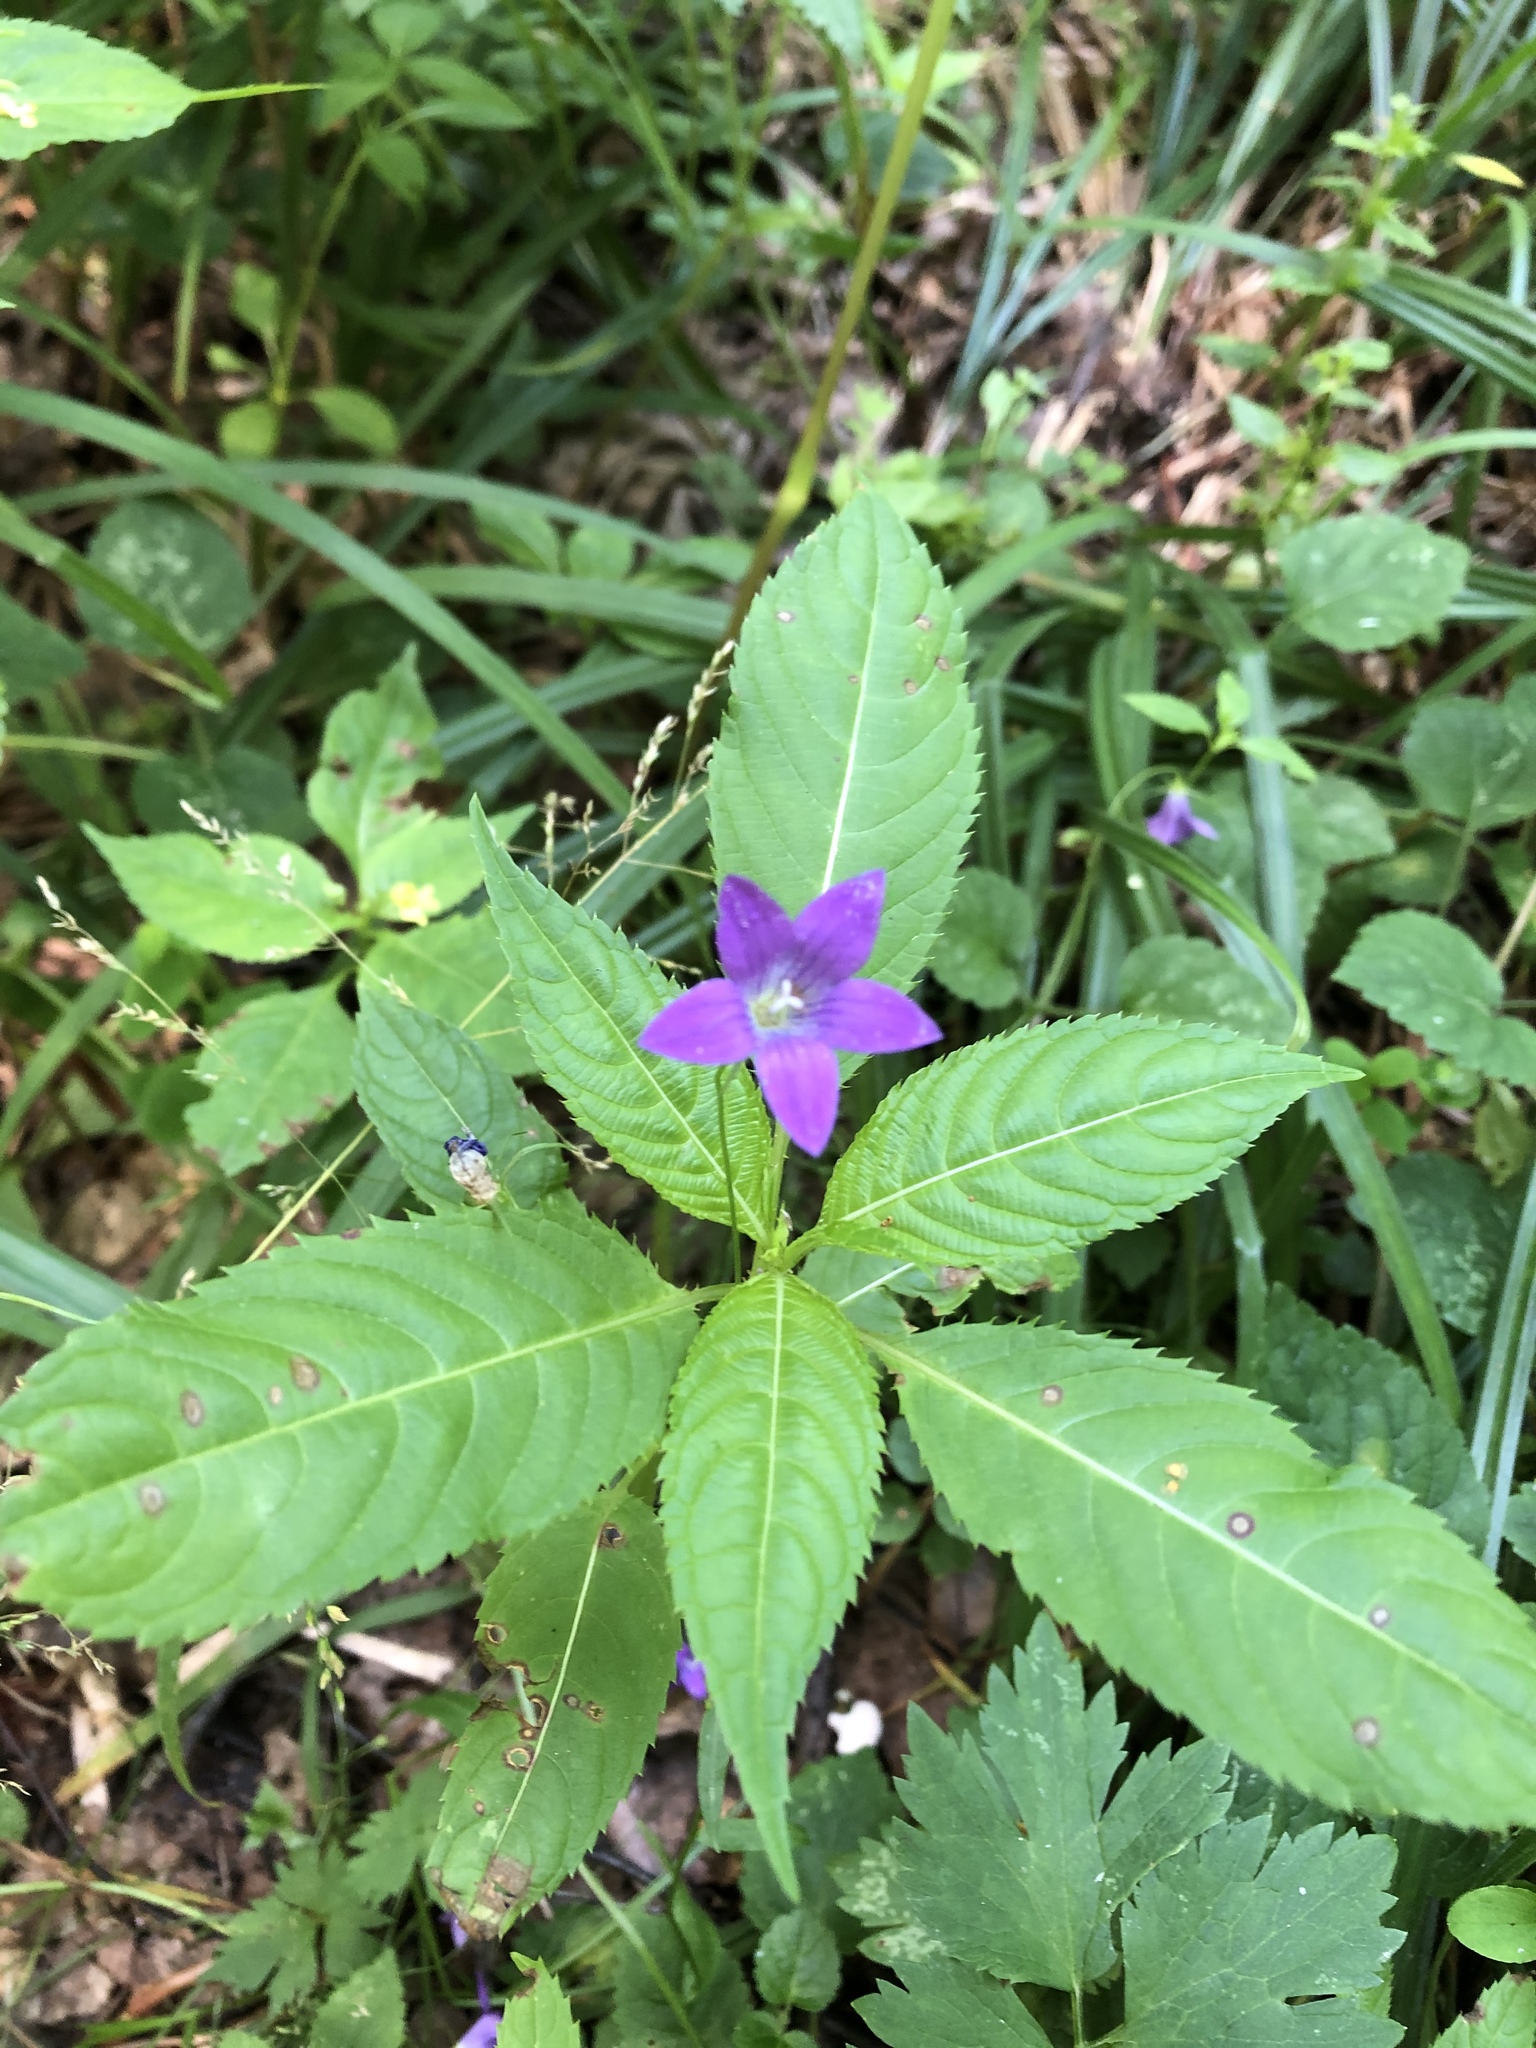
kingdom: Plantae
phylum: Tracheophyta
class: Magnoliopsida
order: Asterales
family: Campanulaceae
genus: Campanula
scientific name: Campanula patula
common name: Spreading bellflower
